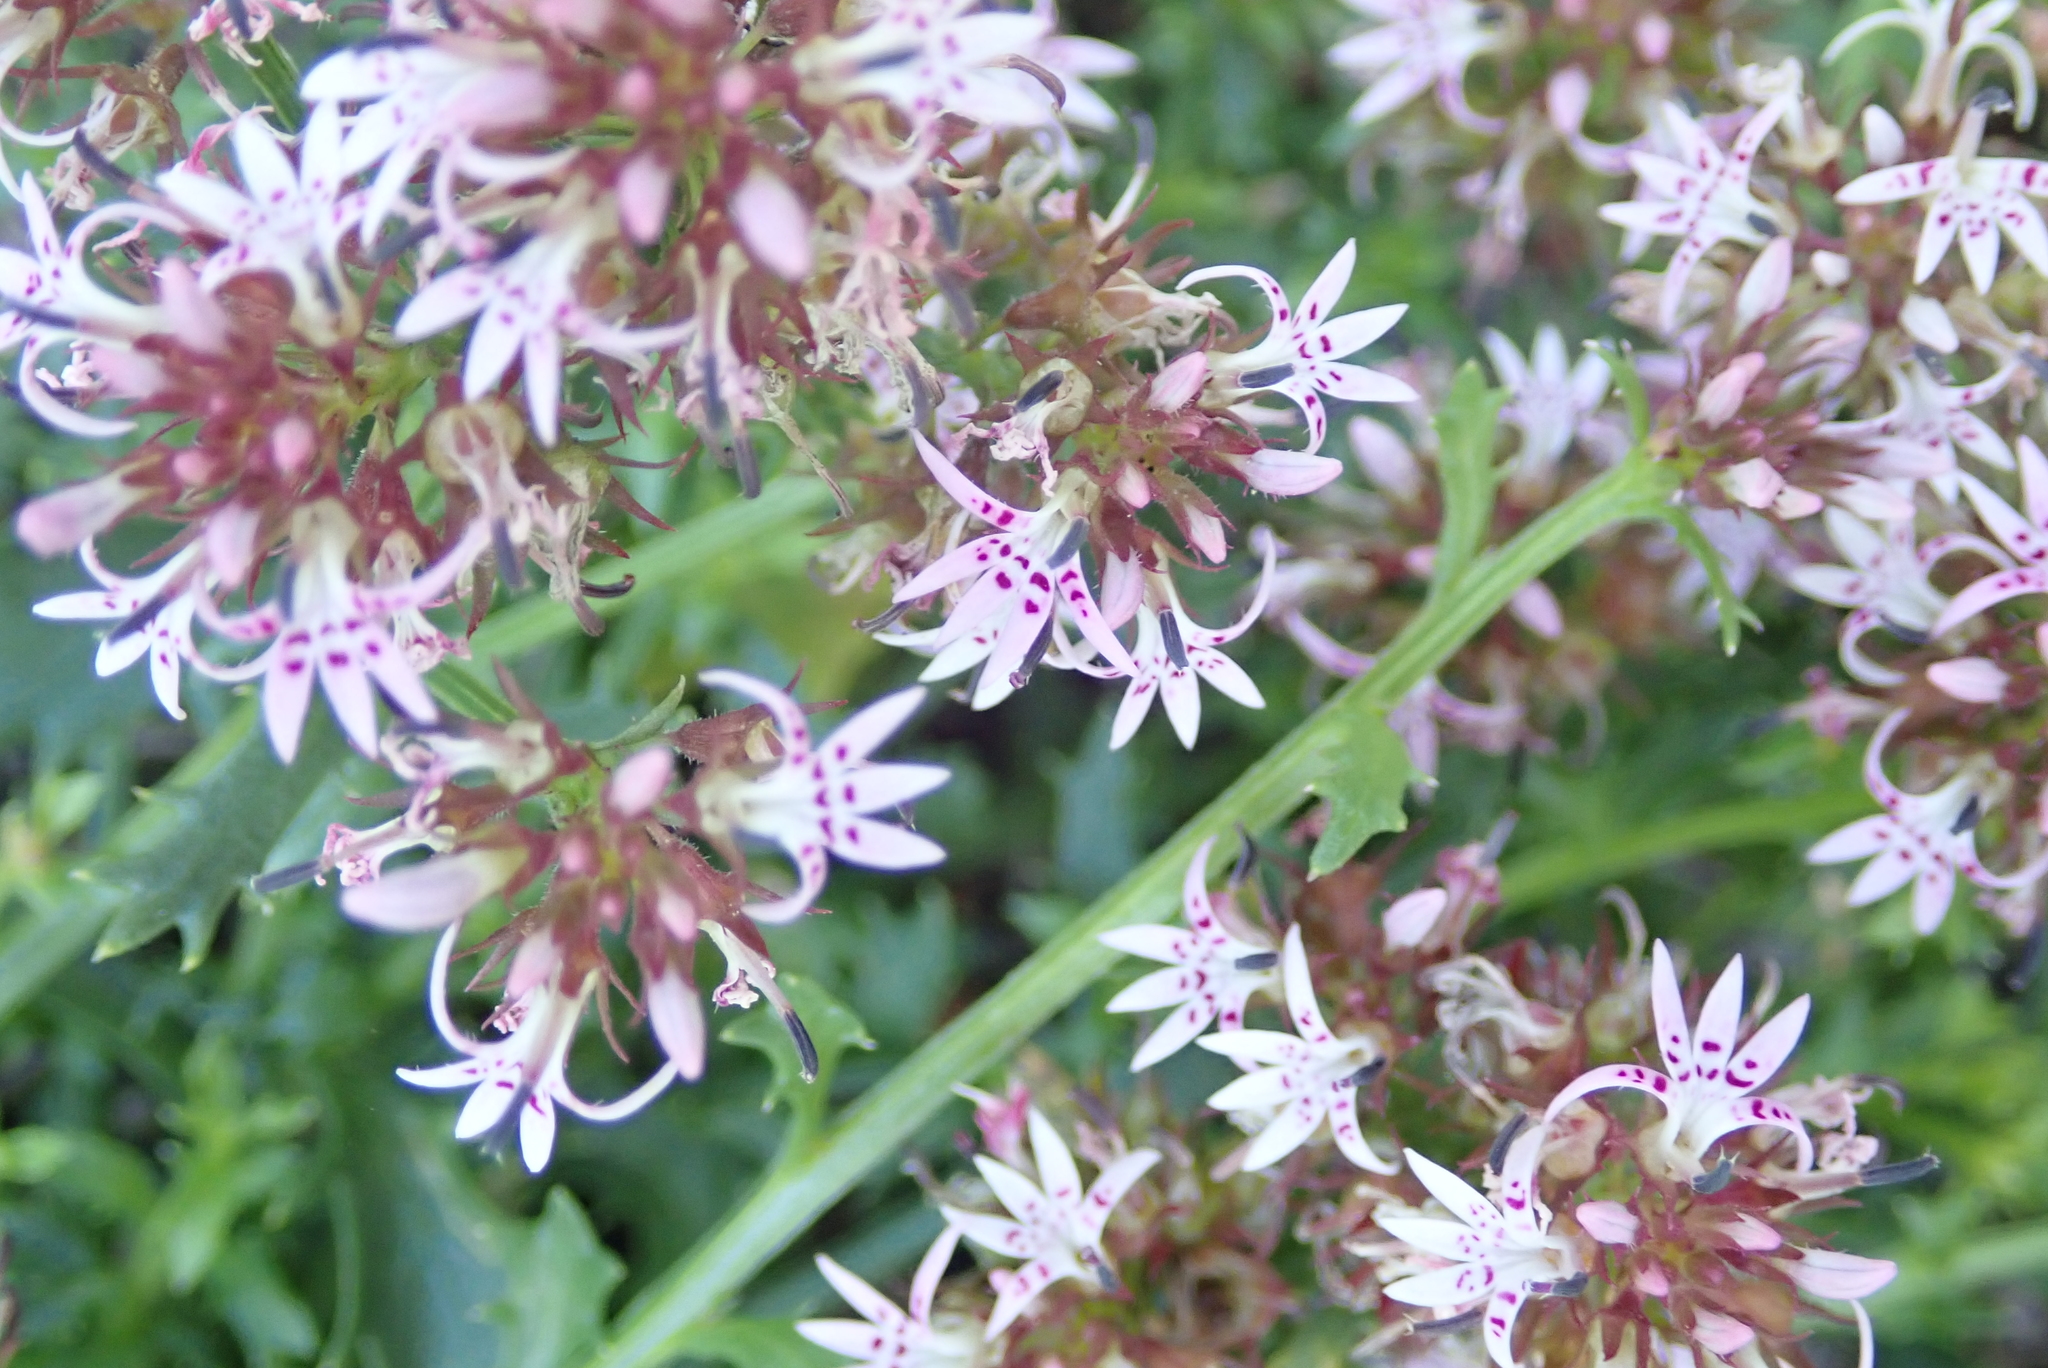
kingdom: Plantae
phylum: Tracheophyta
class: Magnoliopsida
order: Asterales
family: Campanulaceae
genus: Lobelia
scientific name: Lobelia jasionoides
